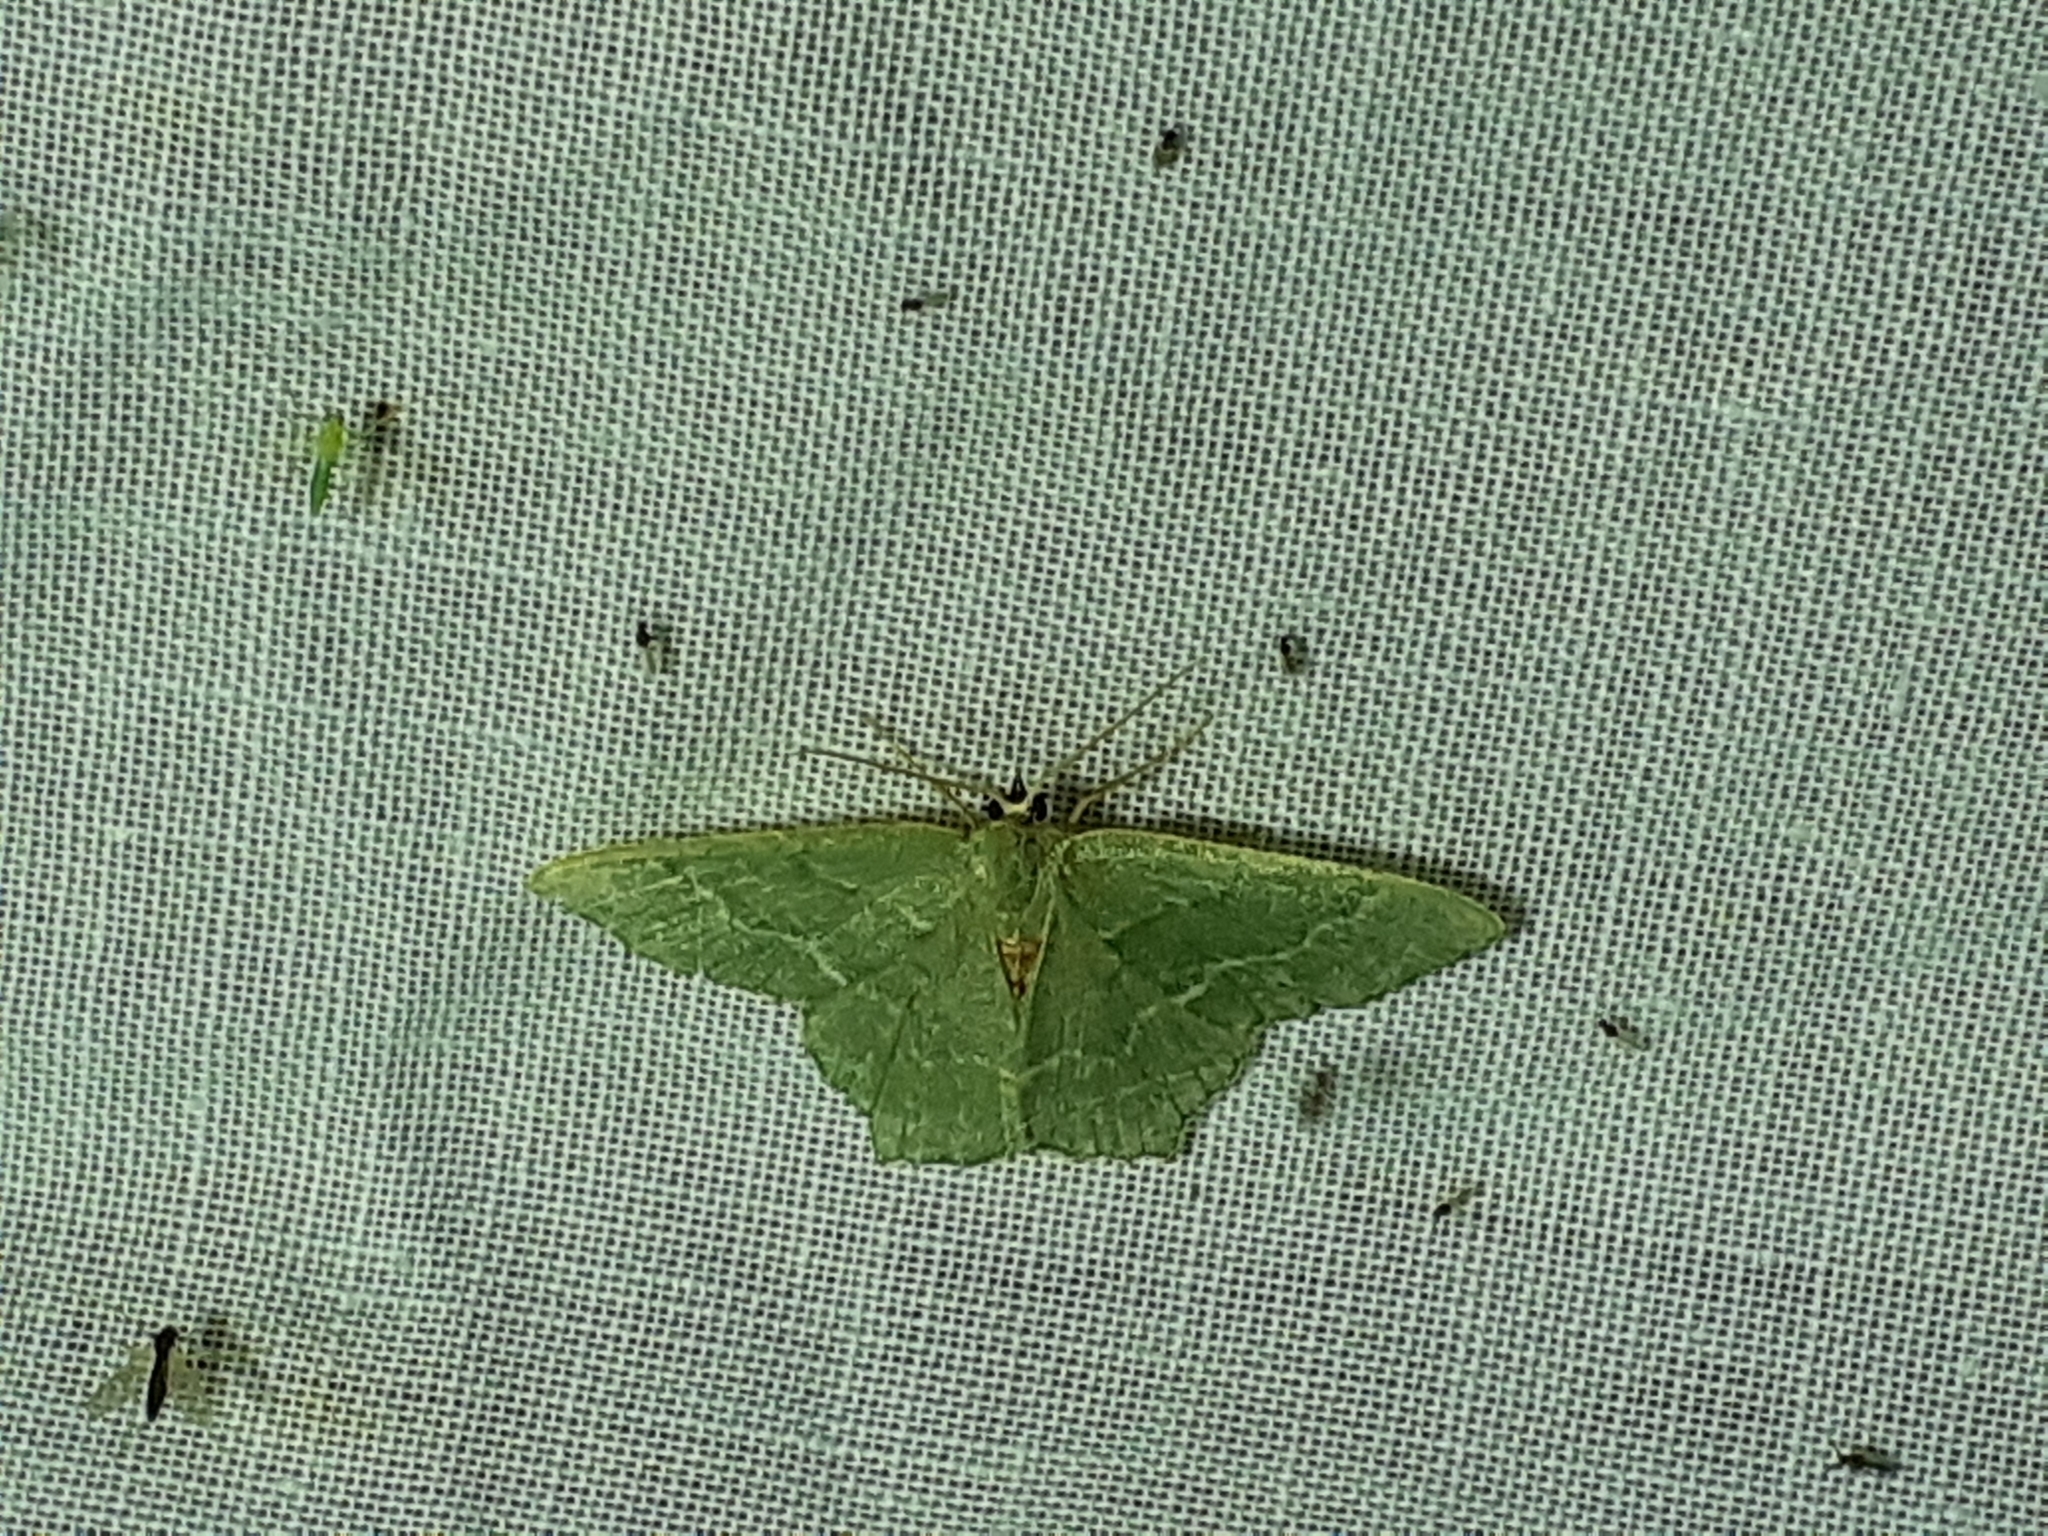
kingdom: Animalia
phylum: Arthropoda
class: Insecta
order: Lepidoptera
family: Geometridae
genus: Hemithea
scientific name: Hemithea aestivaria
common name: Common emerald
